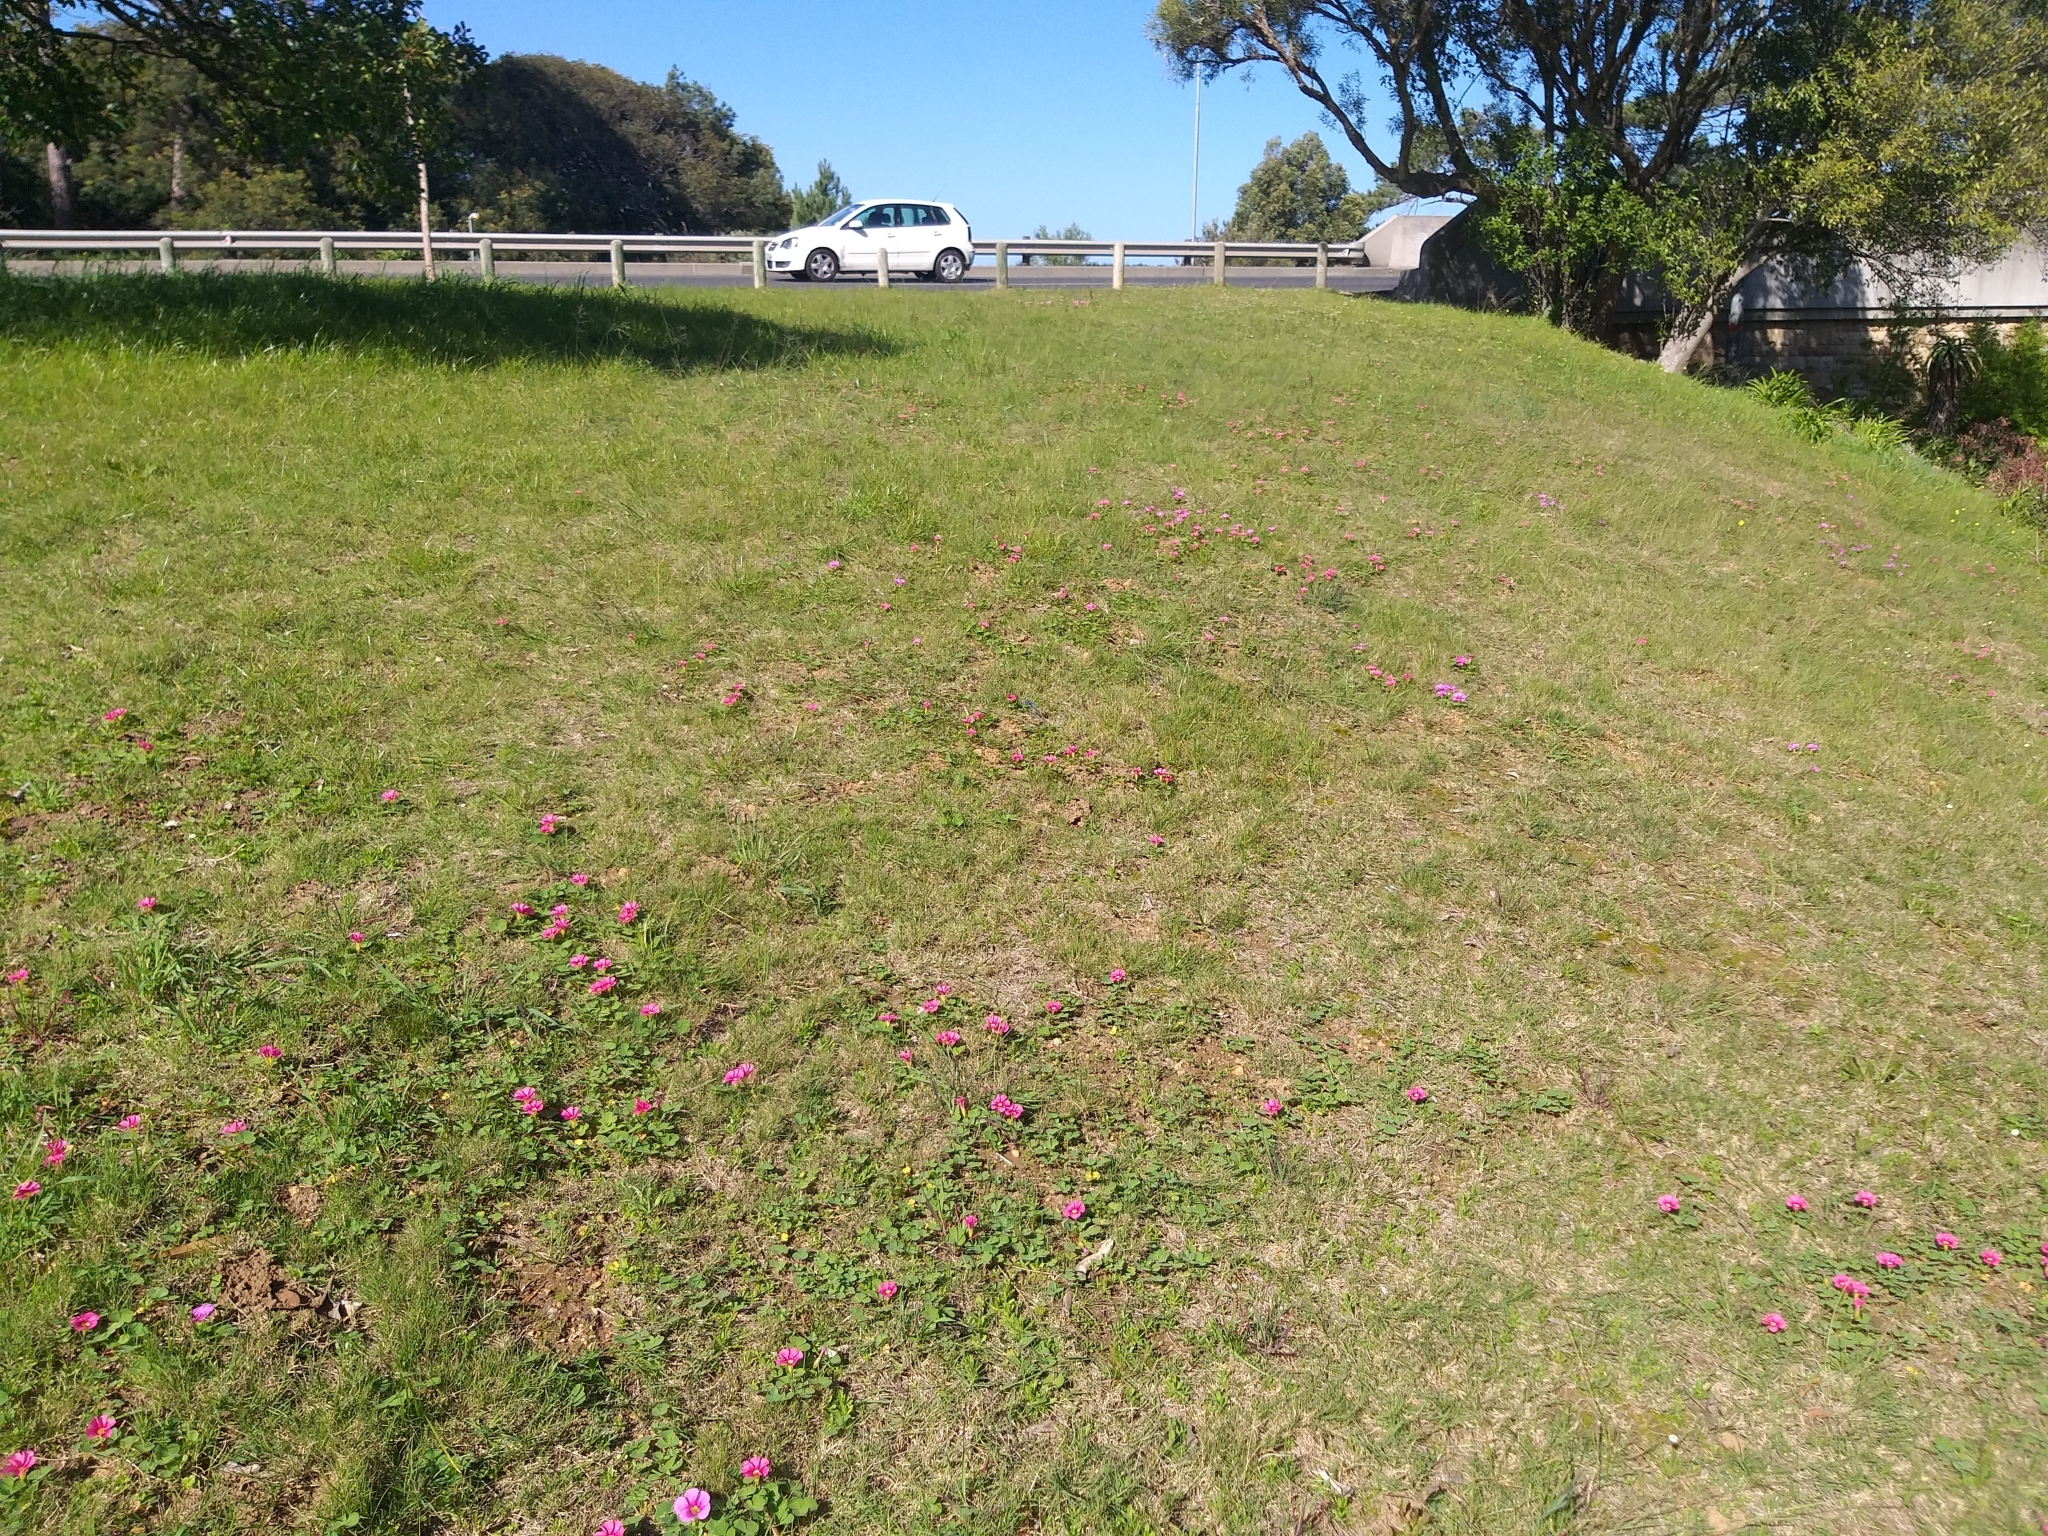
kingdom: Plantae
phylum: Tracheophyta
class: Magnoliopsida
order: Oxalidales
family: Oxalidaceae
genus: Oxalis
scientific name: Oxalis purpurea
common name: Purple woodsorrel
